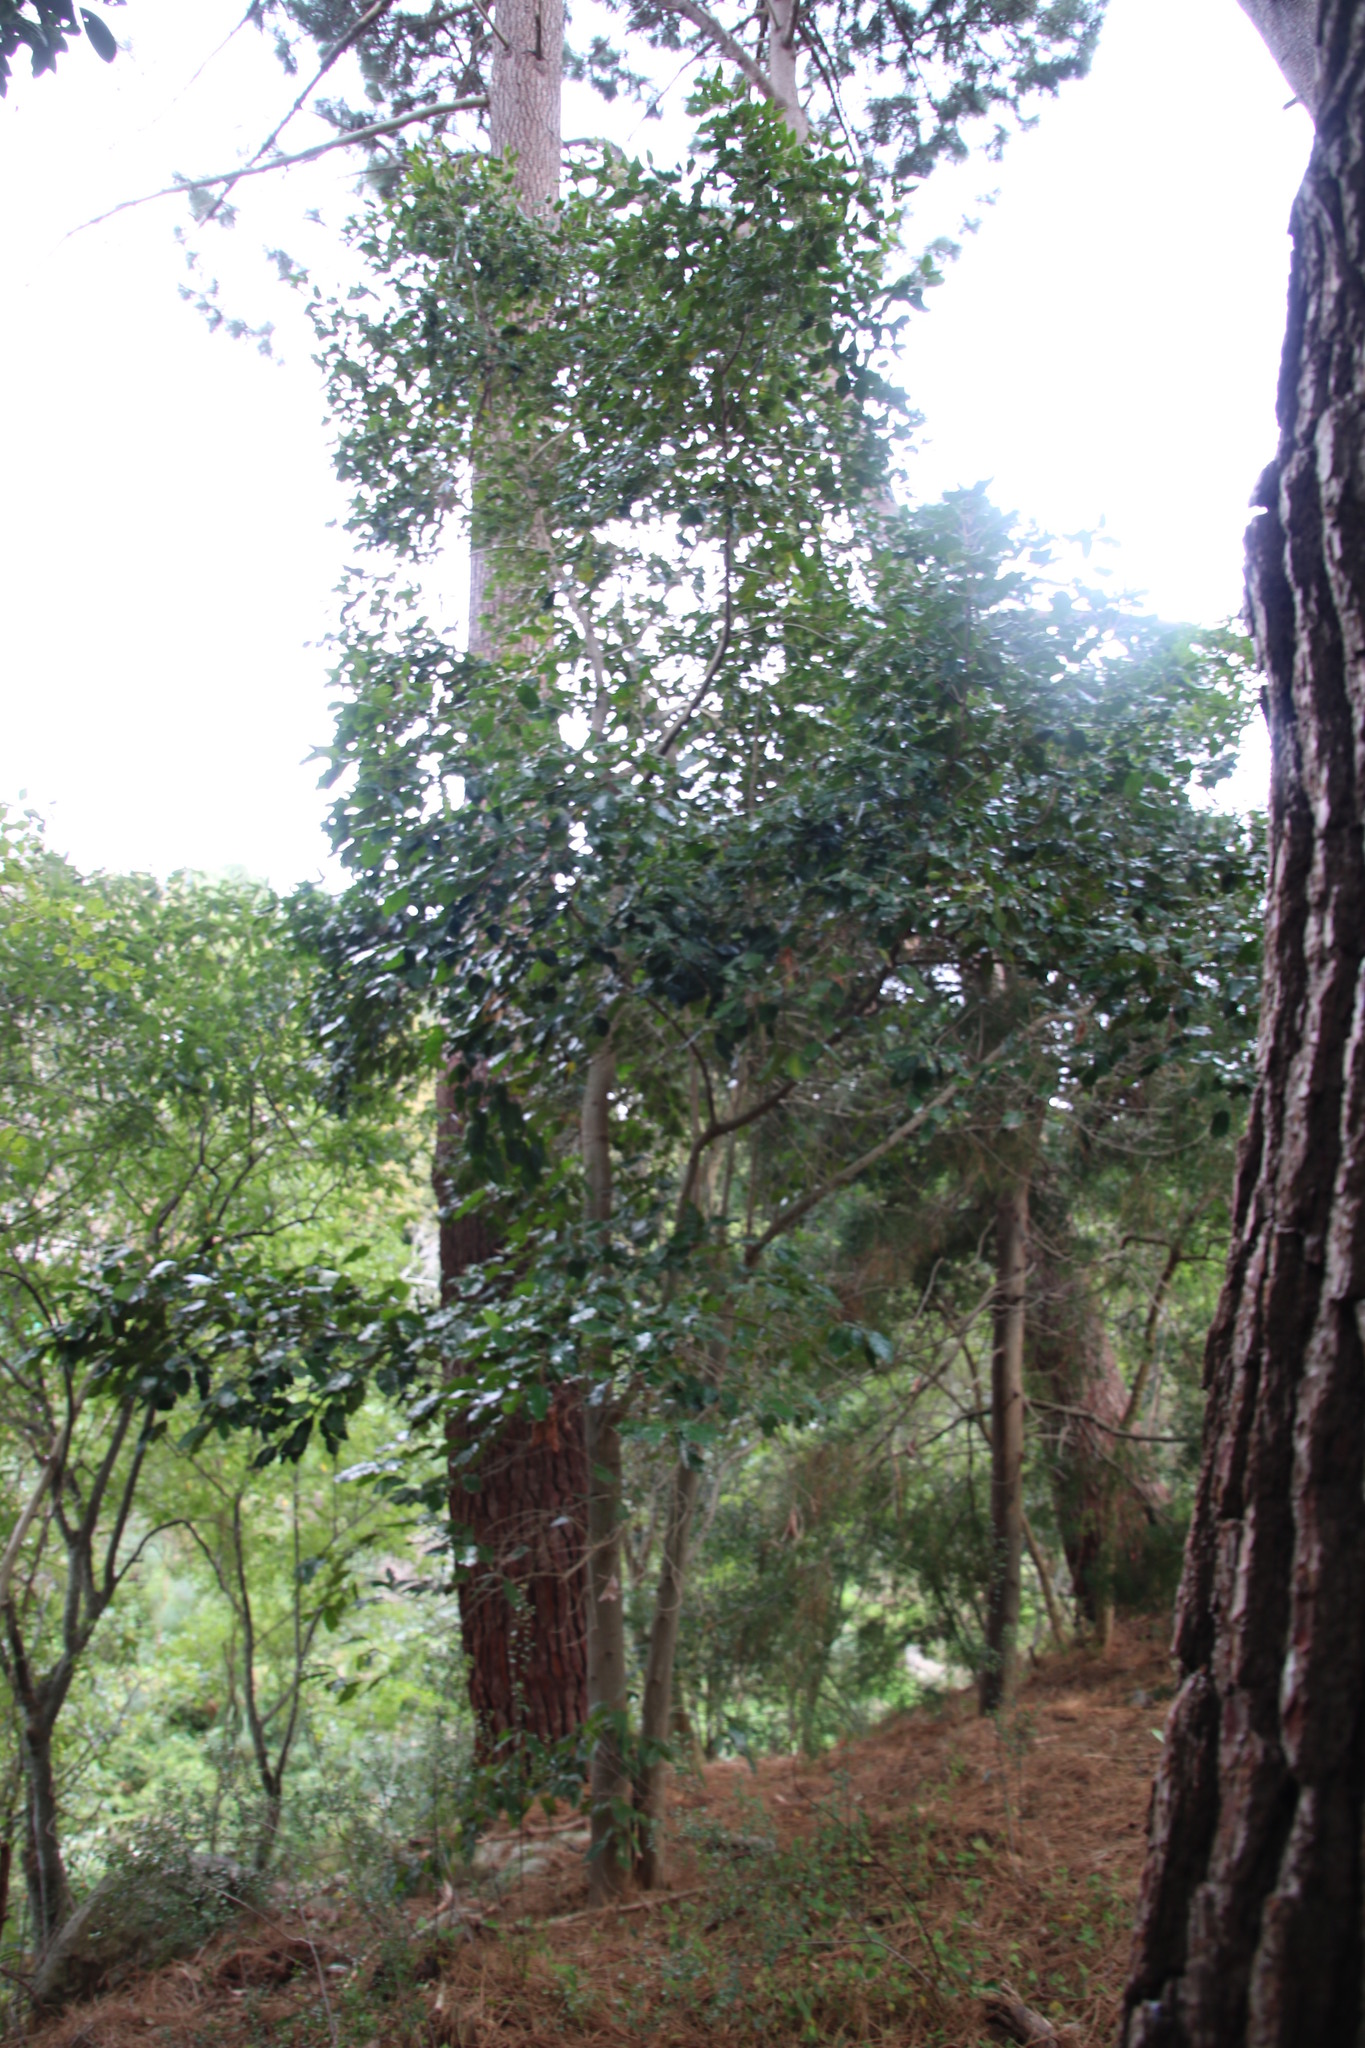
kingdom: Plantae
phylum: Tracheophyta
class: Magnoliopsida
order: Cornales
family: Curtisiaceae
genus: Curtisia
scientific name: Curtisia dentata
